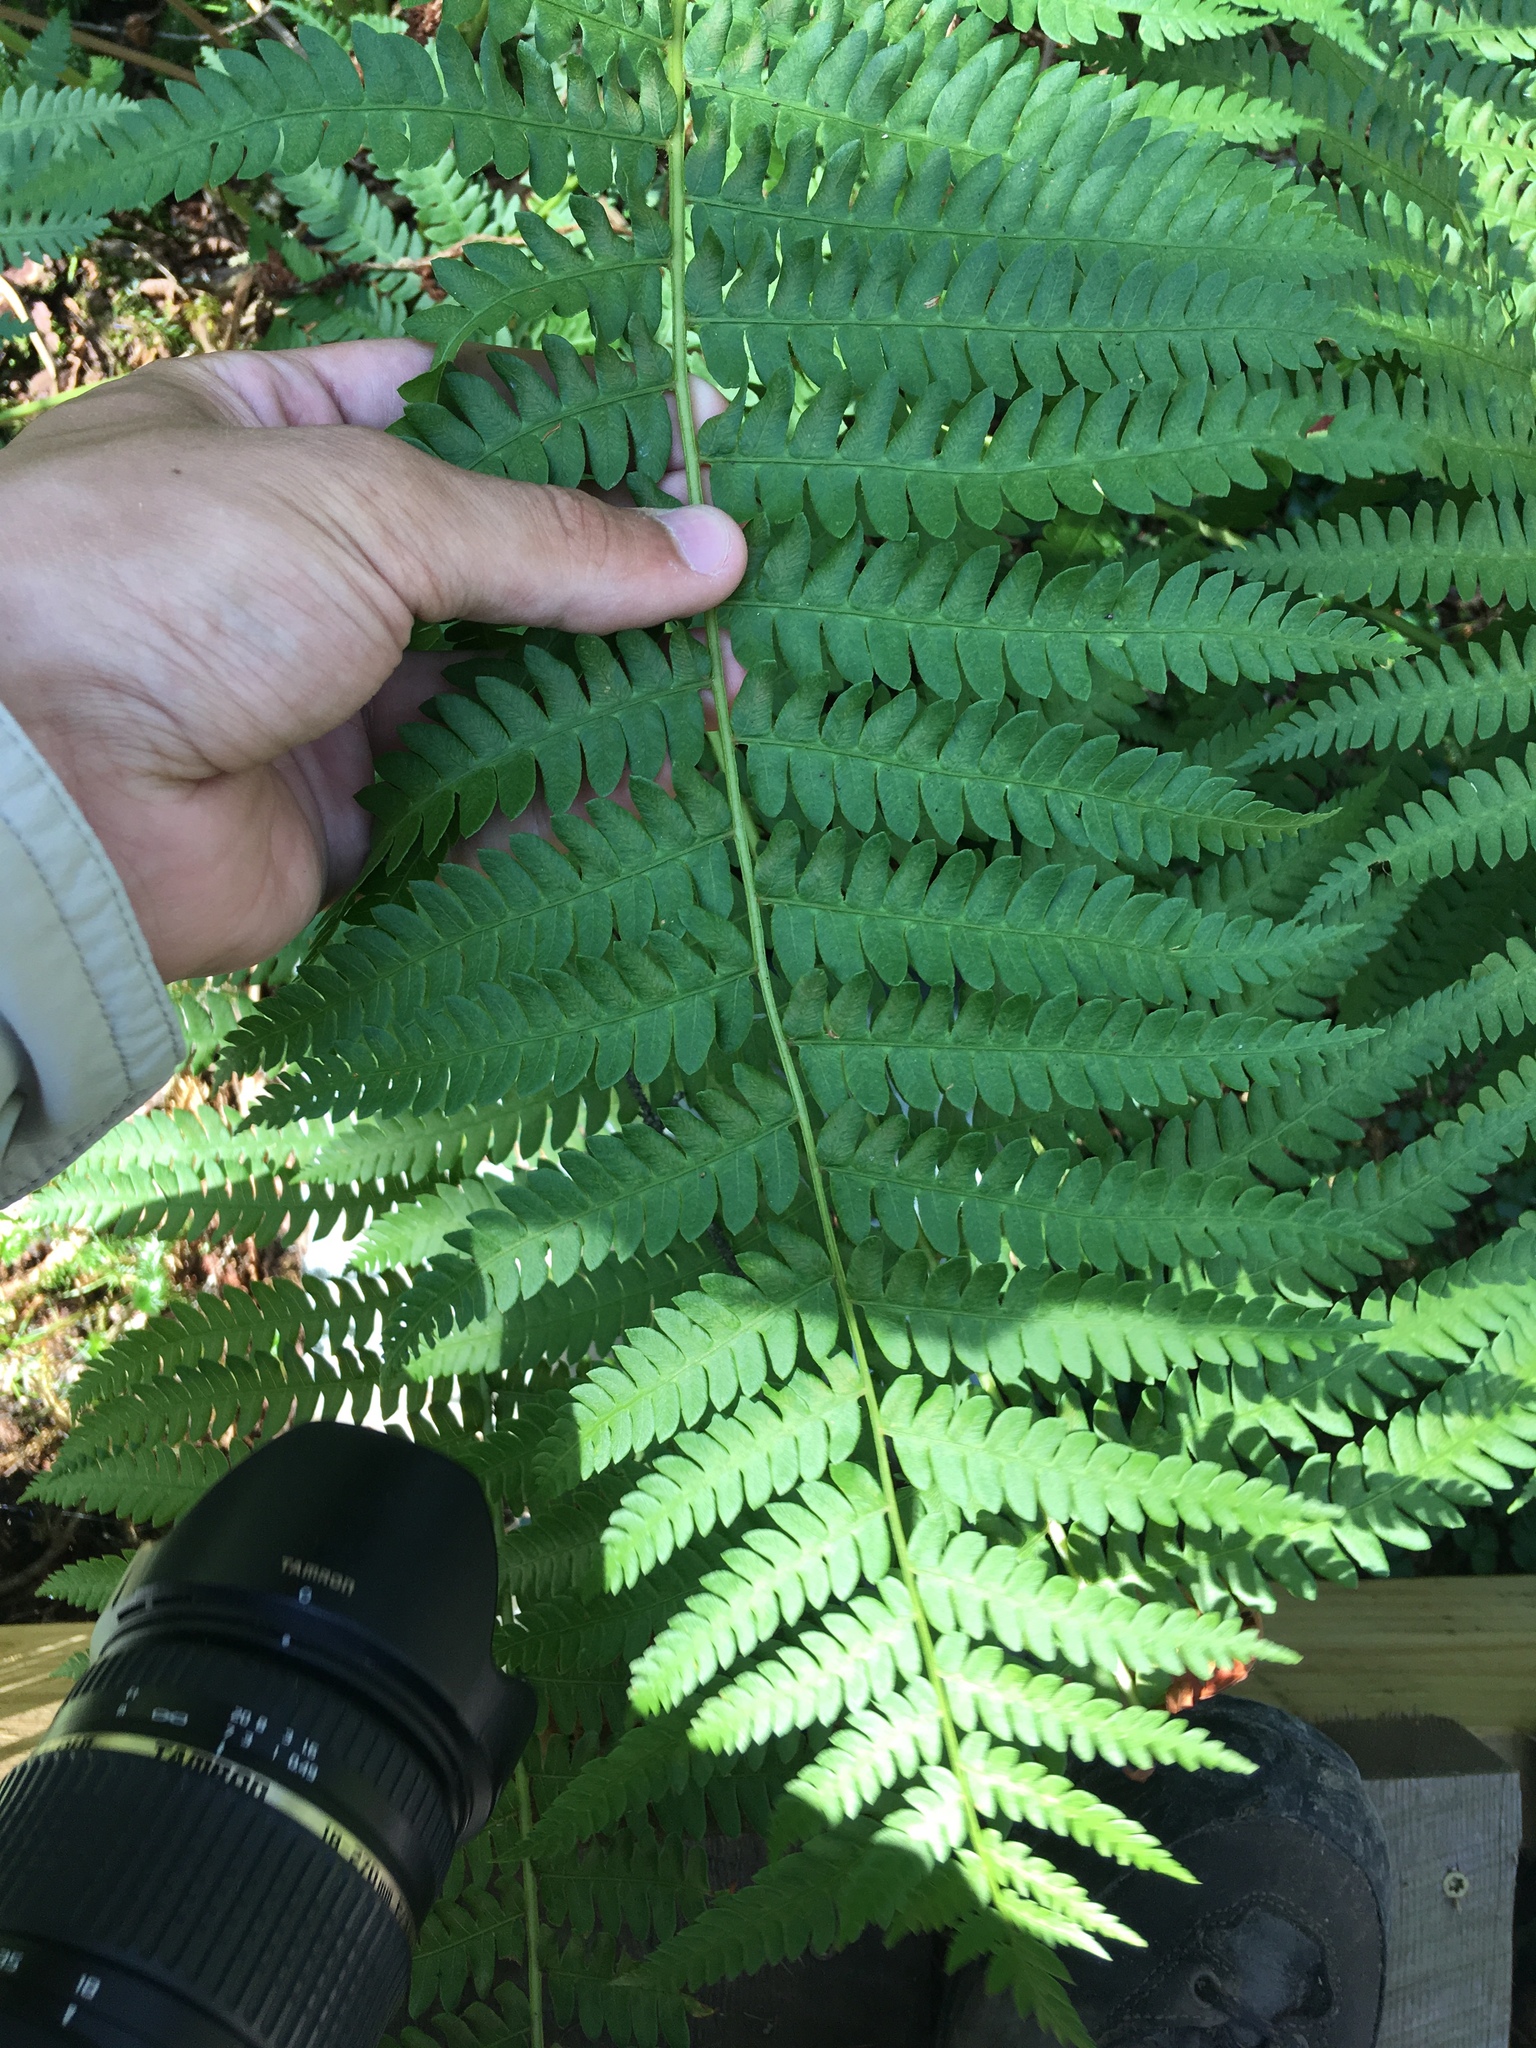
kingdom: Plantae
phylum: Tracheophyta
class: Polypodiopsida
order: Osmundales
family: Osmundaceae
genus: Osmundastrum
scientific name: Osmundastrum cinnamomeum
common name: Cinnamon fern
